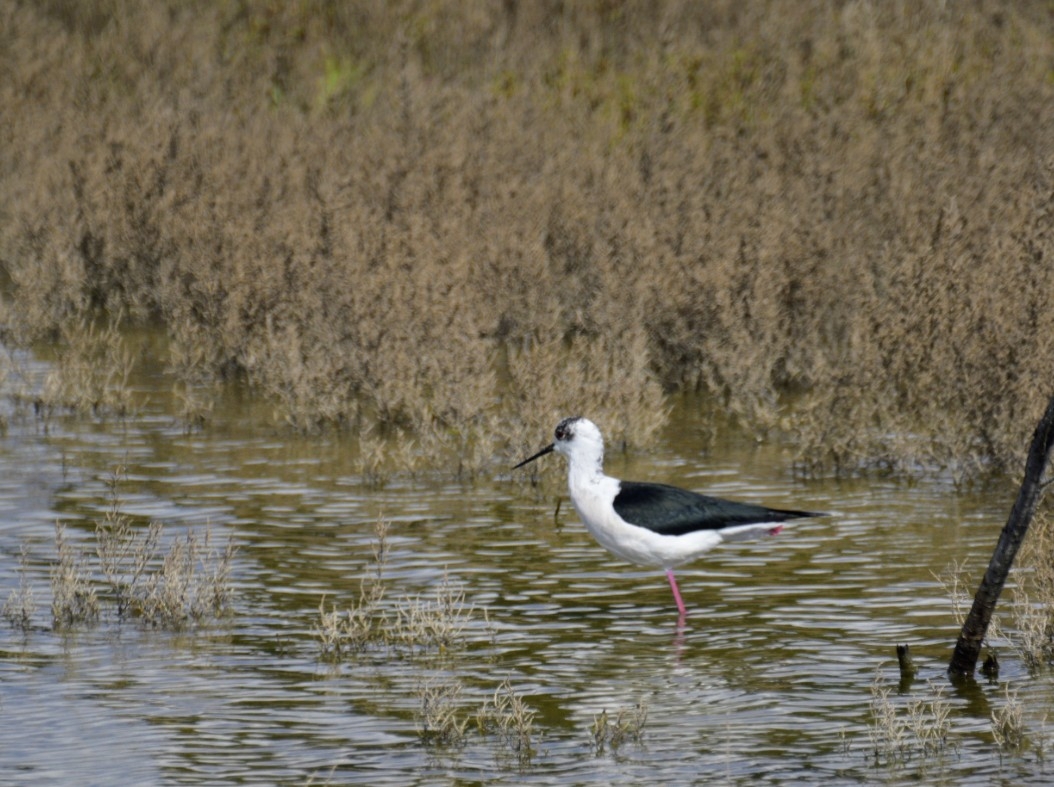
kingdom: Animalia
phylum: Chordata
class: Aves
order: Charadriiformes
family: Recurvirostridae
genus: Himantopus
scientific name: Himantopus himantopus
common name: Black-winged stilt
